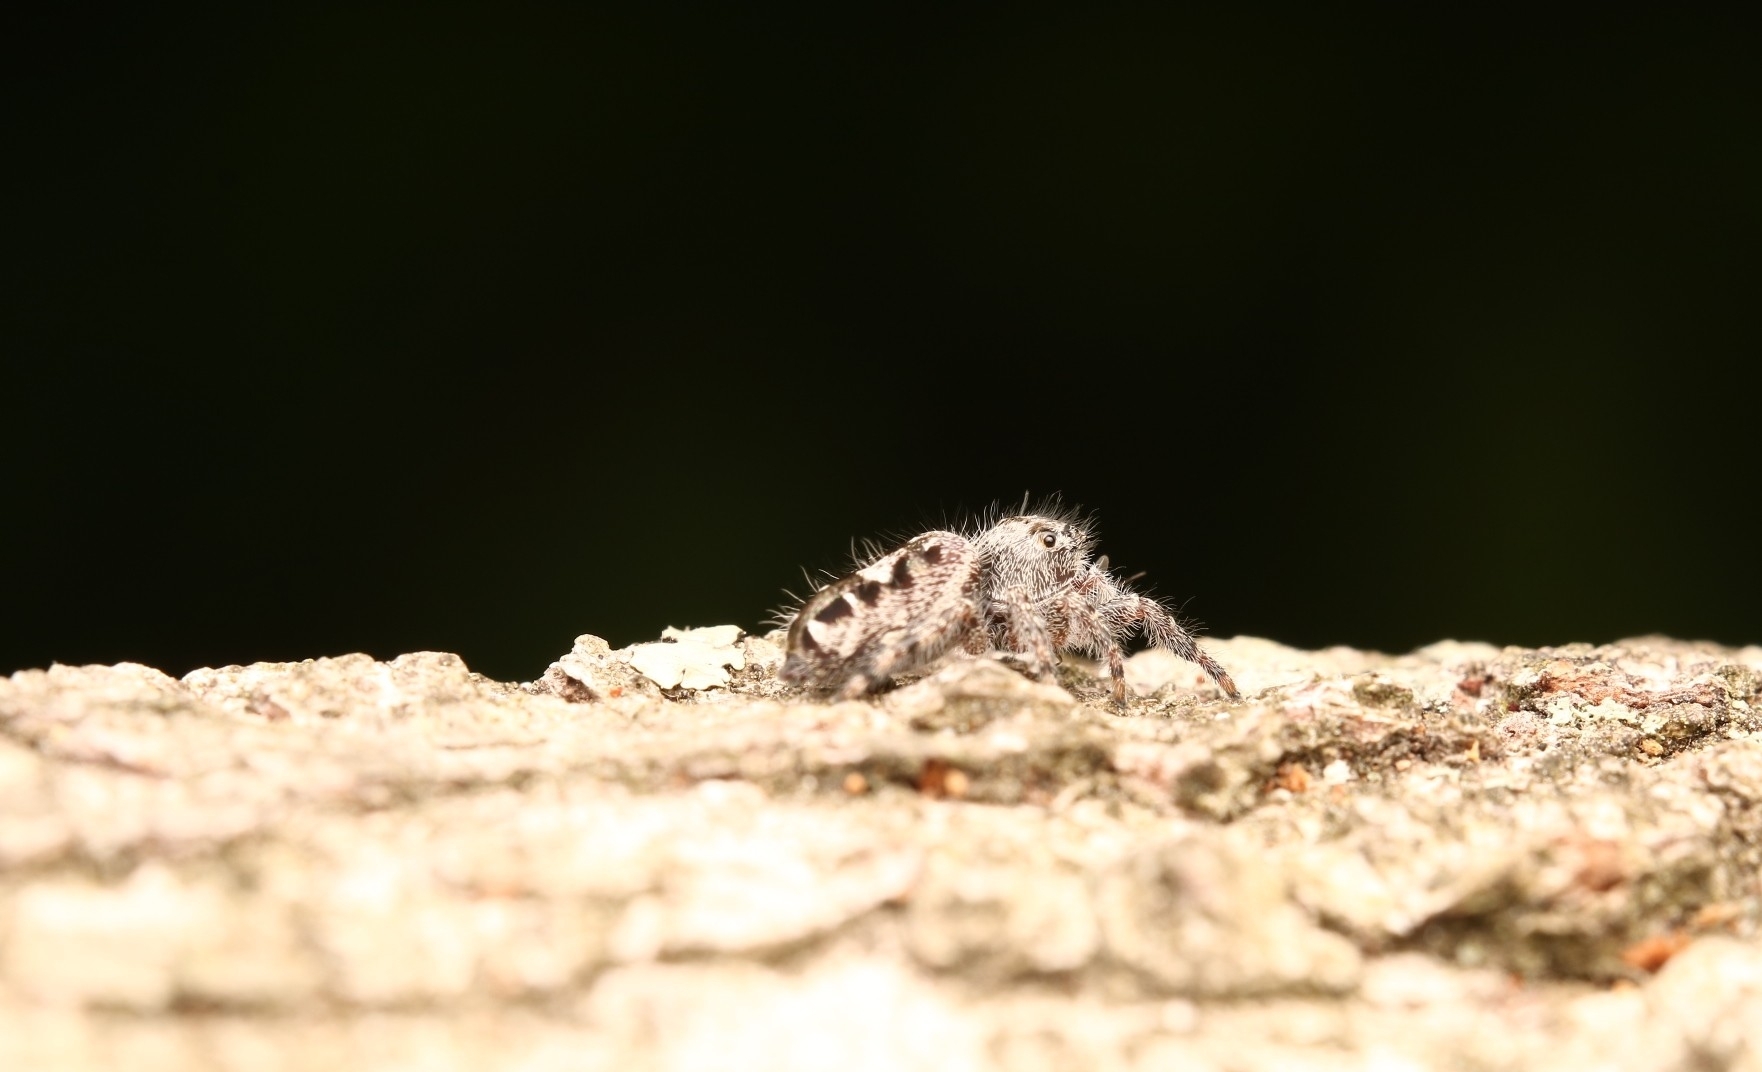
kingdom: Animalia
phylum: Arthropoda
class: Arachnida
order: Araneae
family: Salticidae
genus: Phidippus
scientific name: Phidippus putnami
